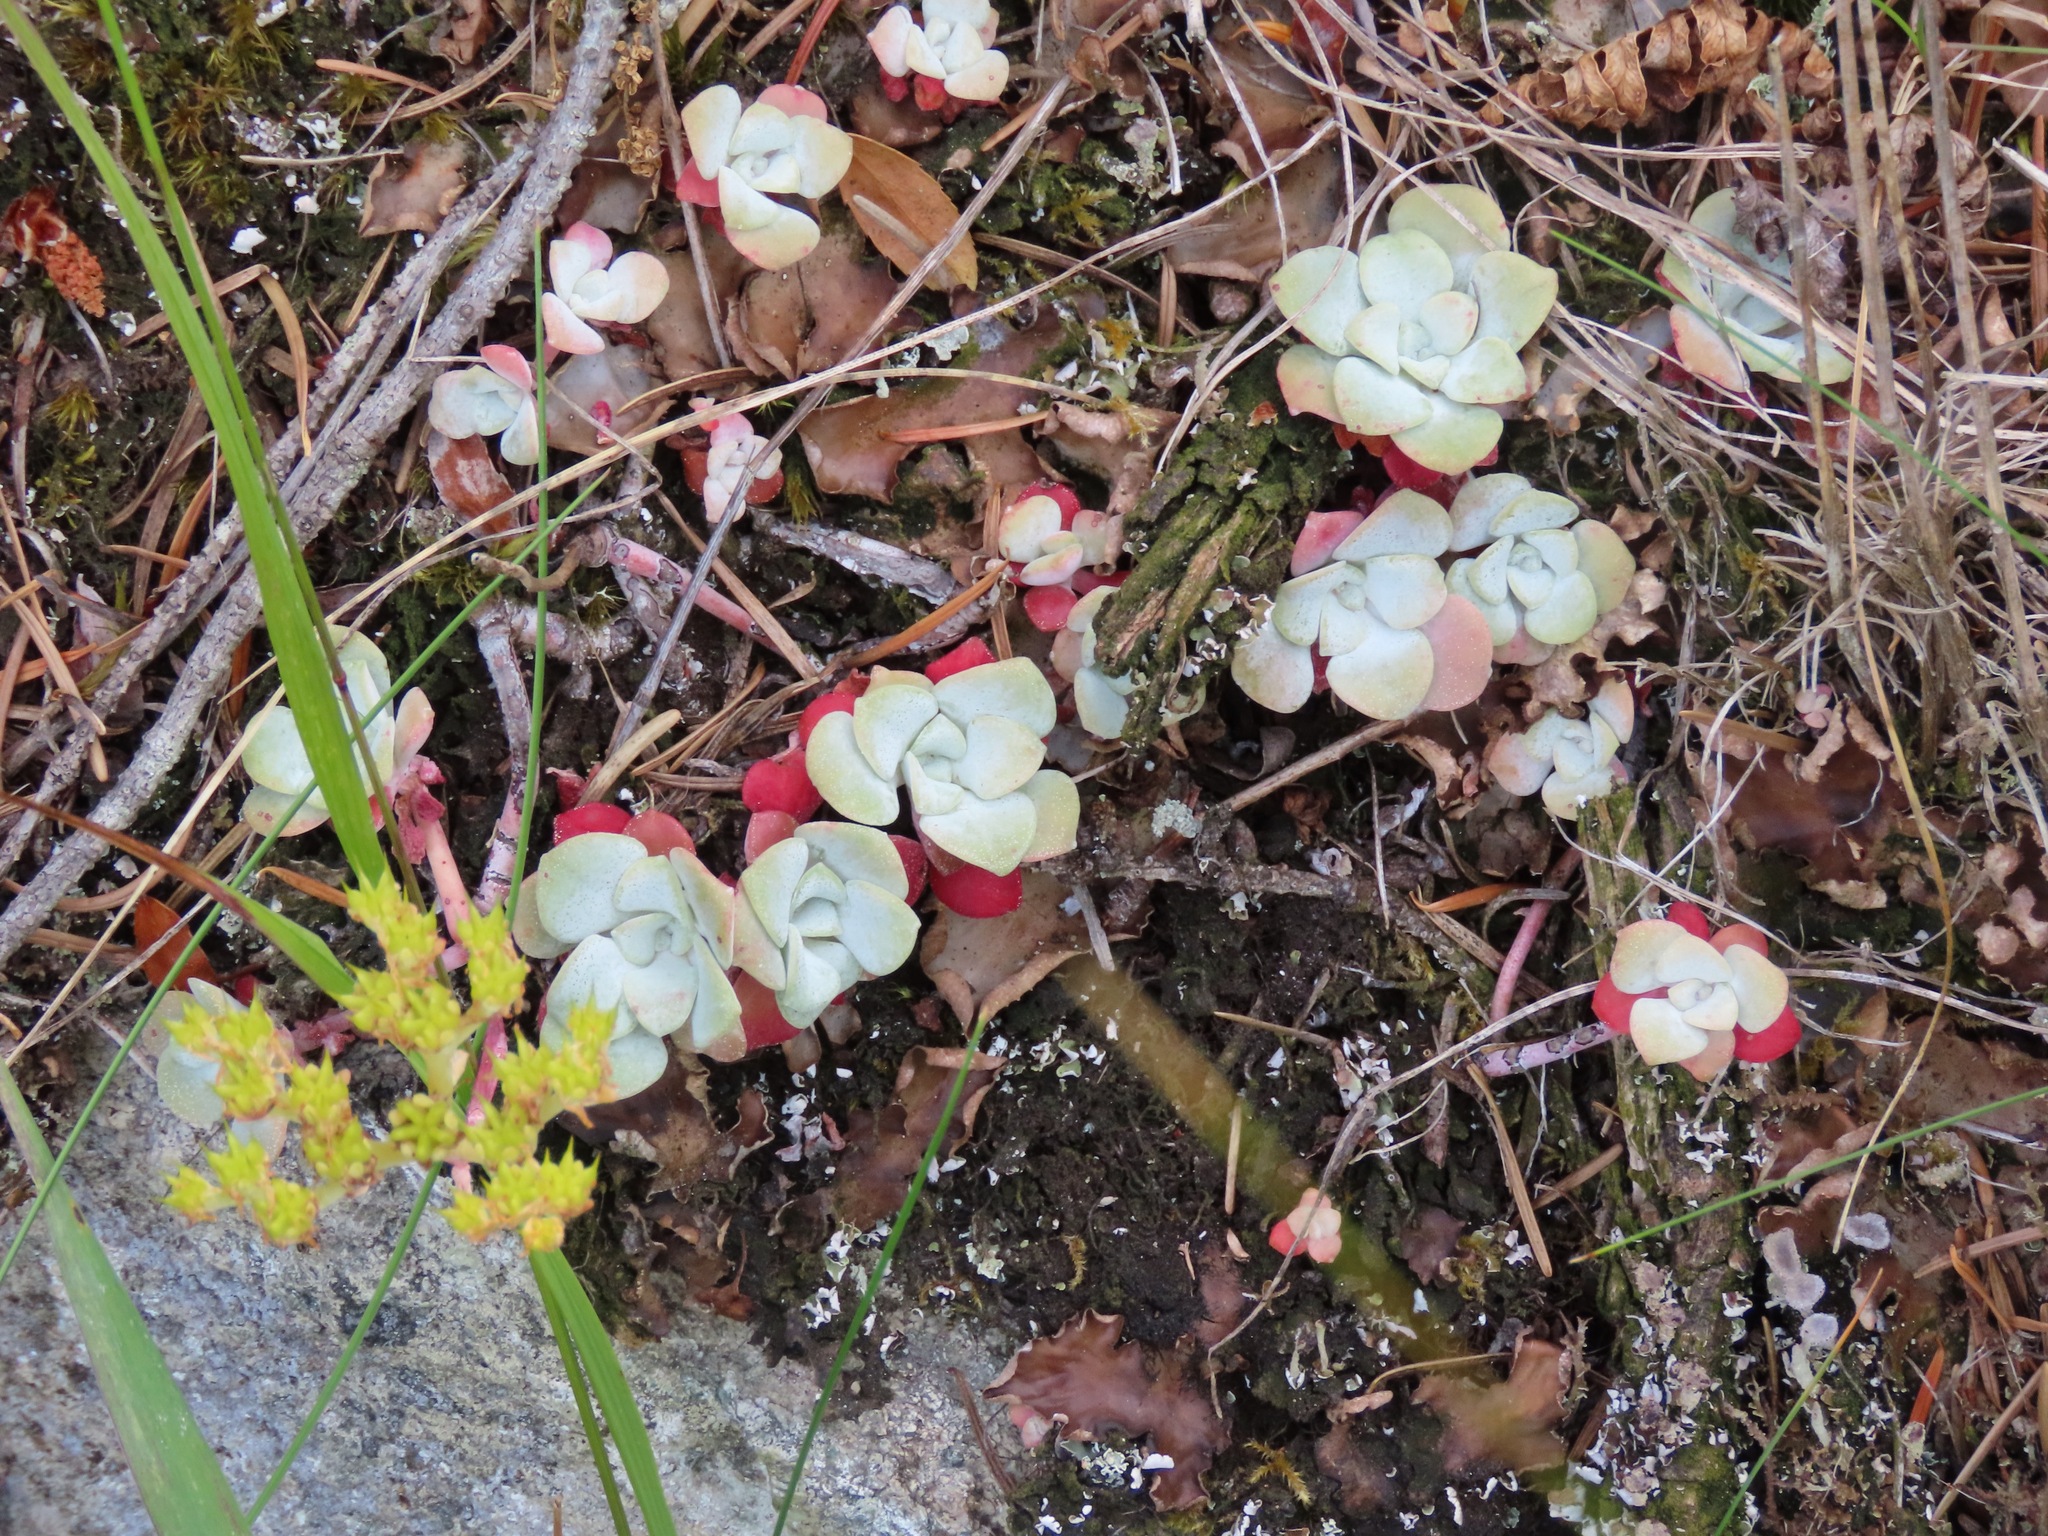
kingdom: Plantae
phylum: Tracheophyta
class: Magnoliopsida
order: Saxifragales
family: Crassulaceae
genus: Sedum
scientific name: Sedum spathulifolium
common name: Colorado stonecrop
